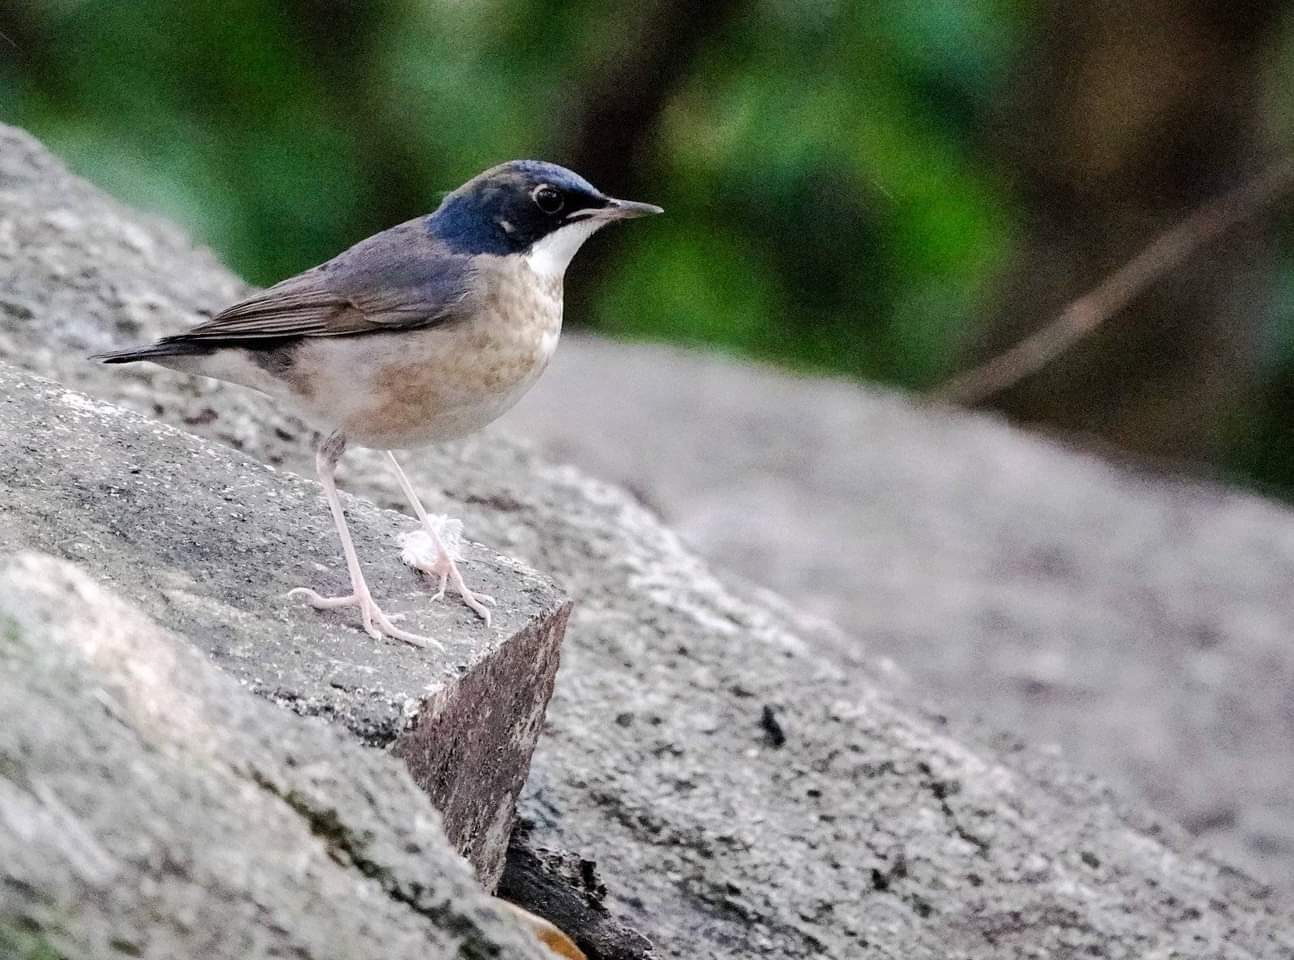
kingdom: Animalia
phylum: Chordata
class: Aves
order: Passeriformes
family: Muscicapidae
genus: Luscinia
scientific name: Luscinia cyane
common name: Siberian blue robin
